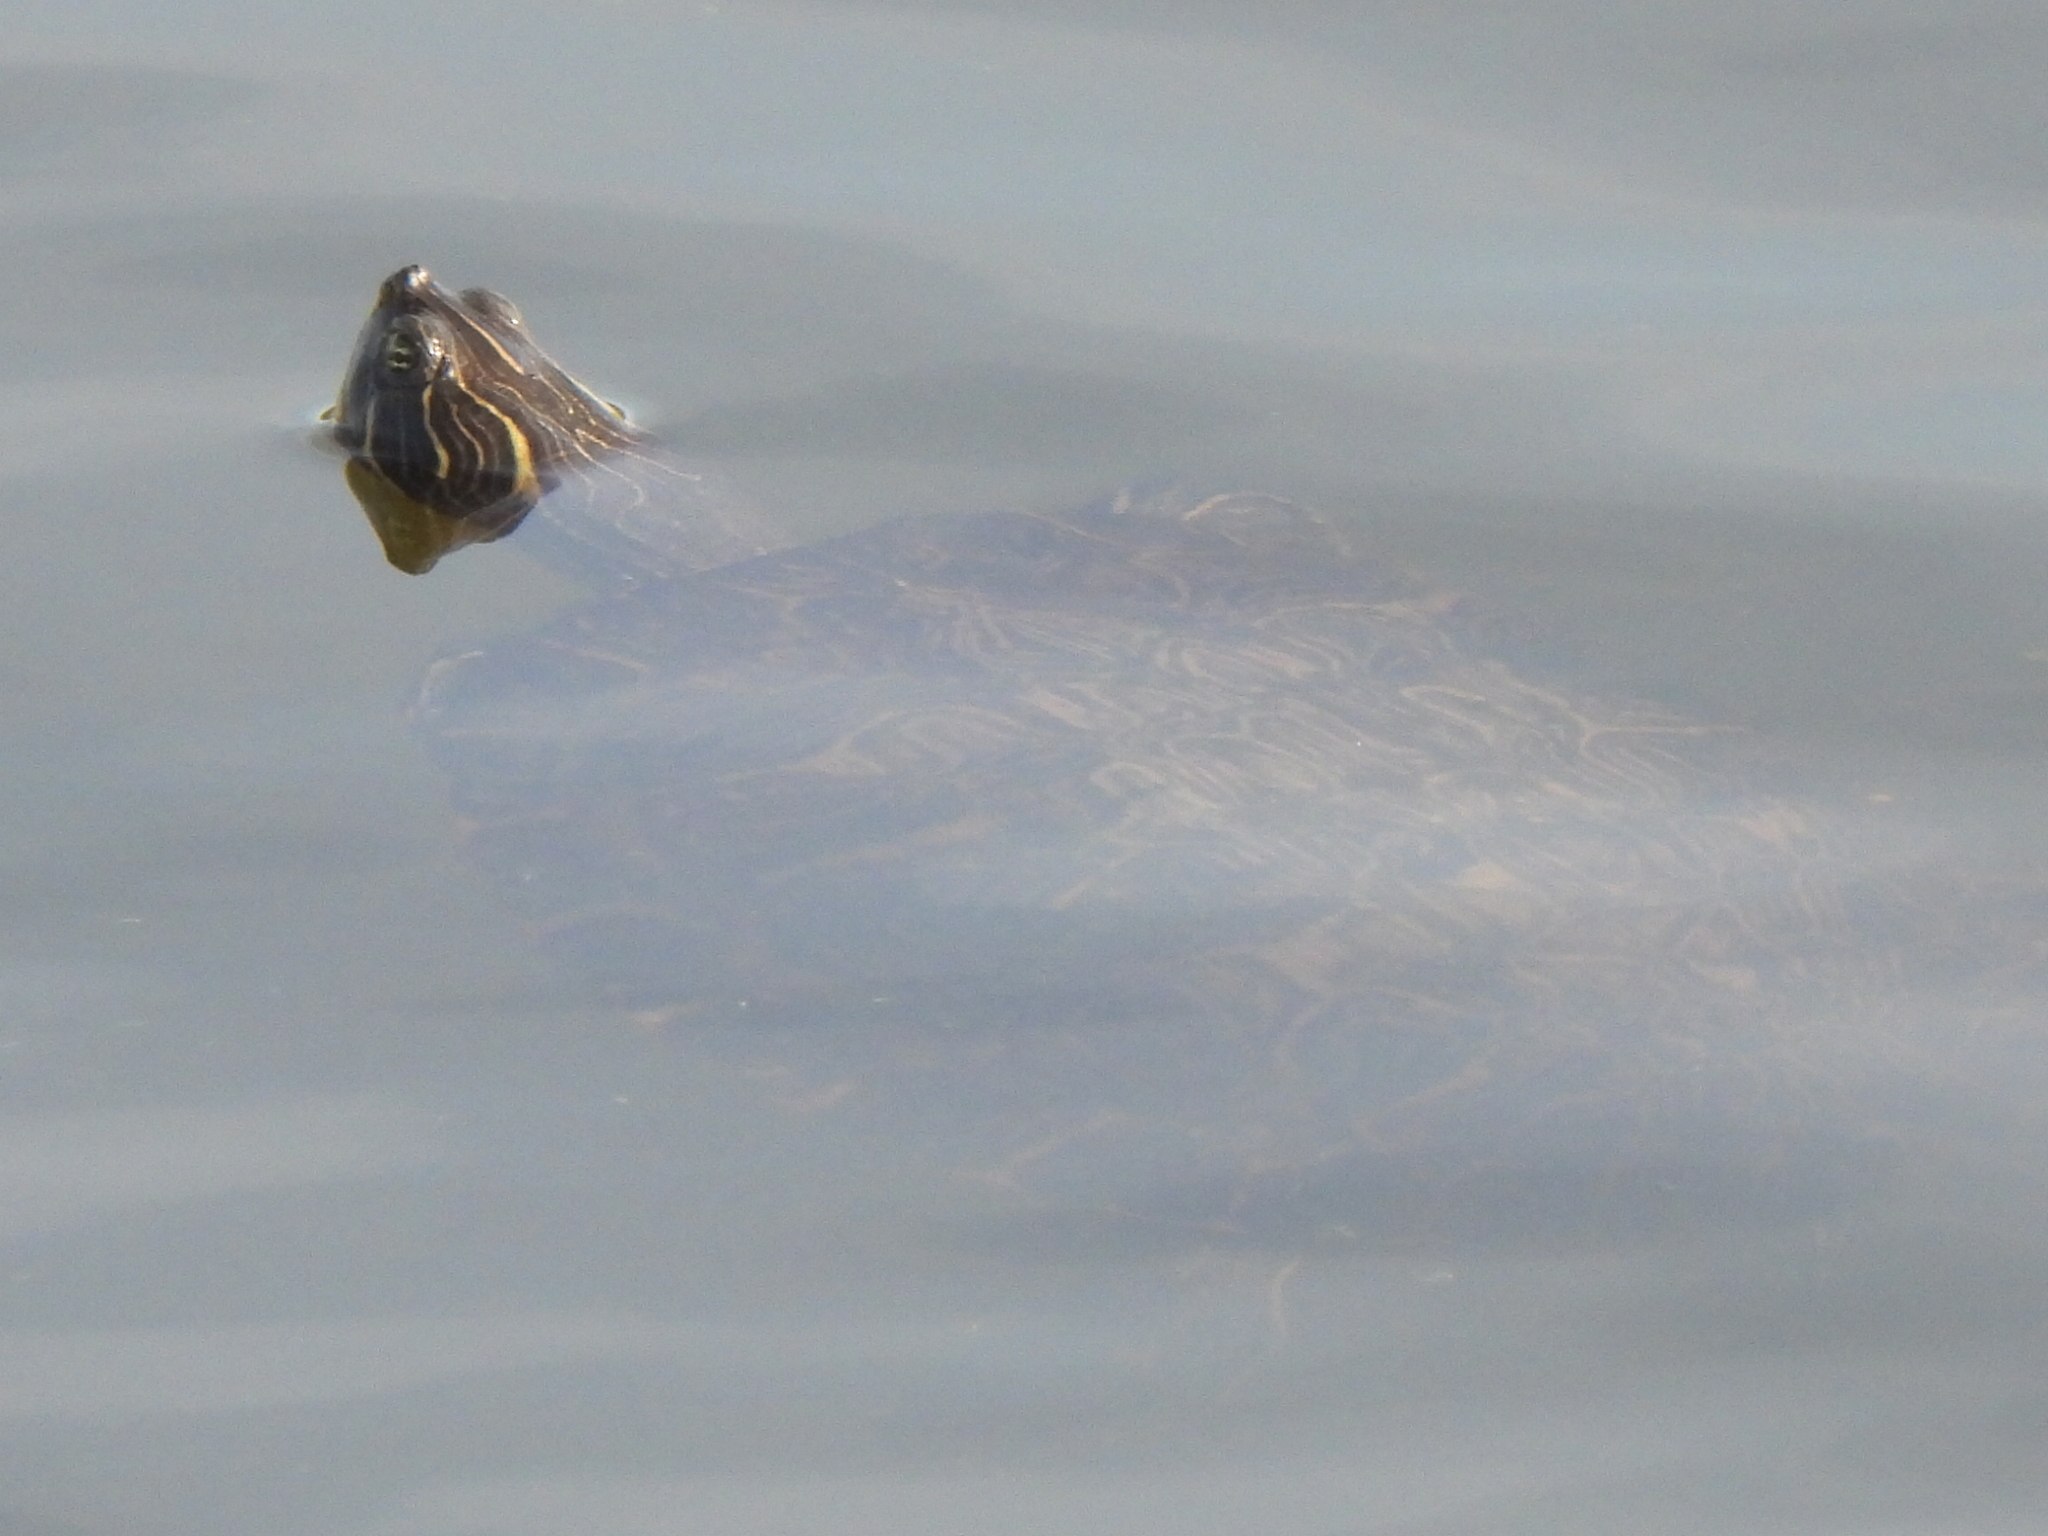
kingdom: Animalia
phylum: Chordata
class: Testudines
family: Emydidae
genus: Pseudemys
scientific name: Pseudemys concinna
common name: Eastern river cooter
